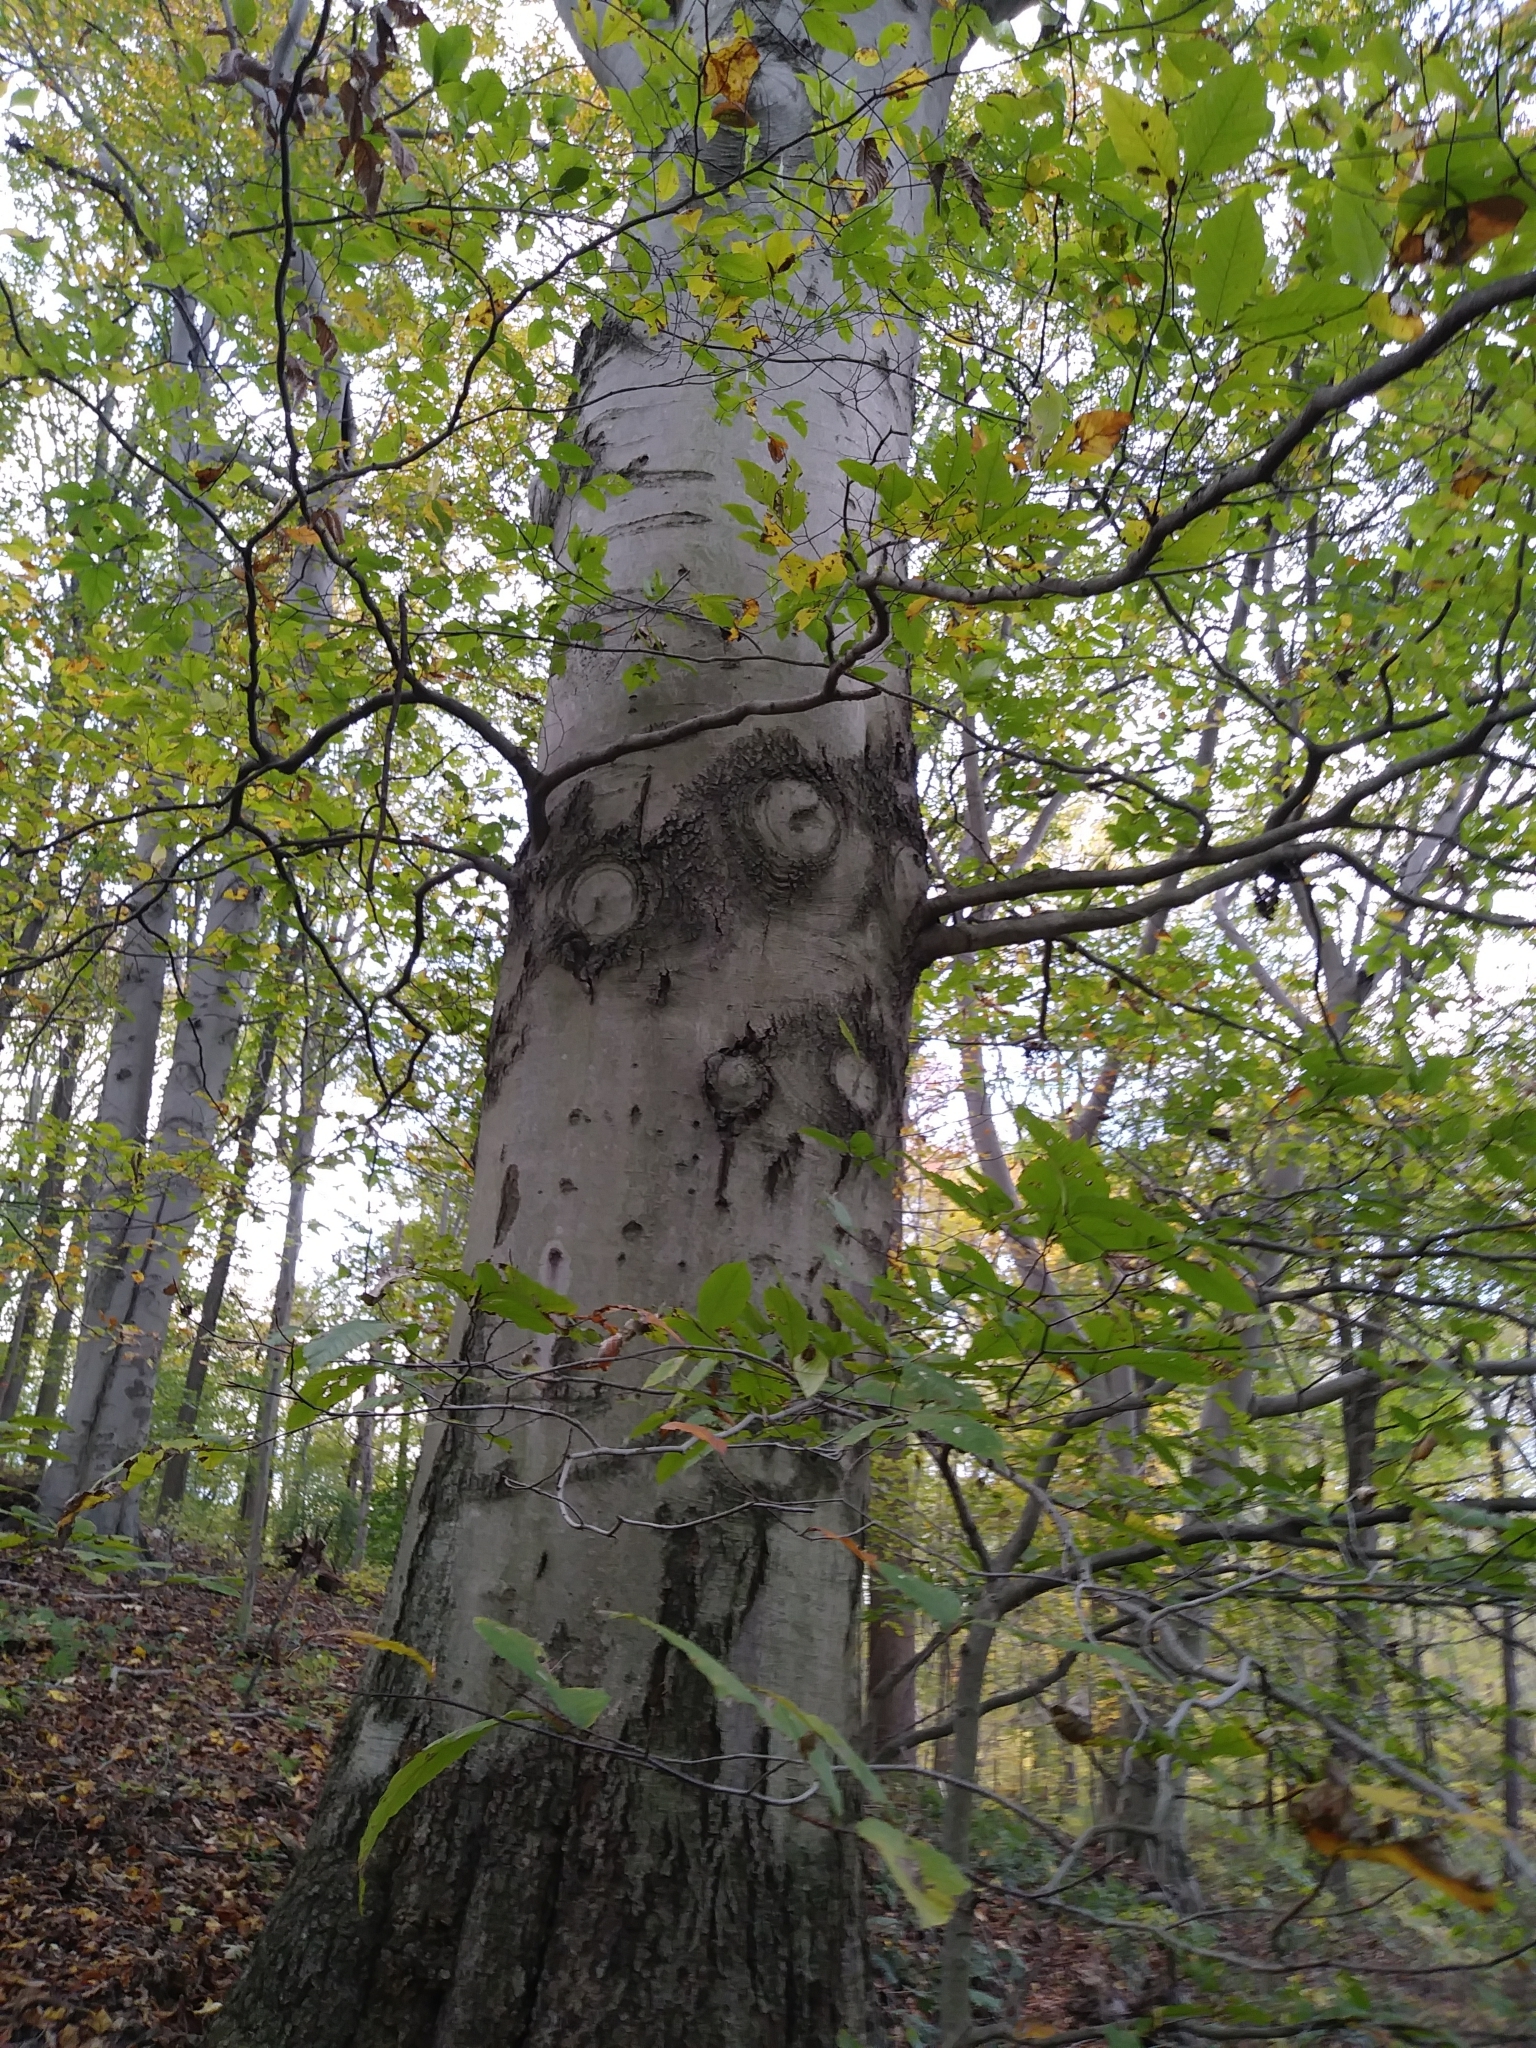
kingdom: Plantae
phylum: Tracheophyta
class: Magnoliopsida
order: Fagales
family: Fagaceae
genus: Fagus
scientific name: Fagus grandifolia
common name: American beech
